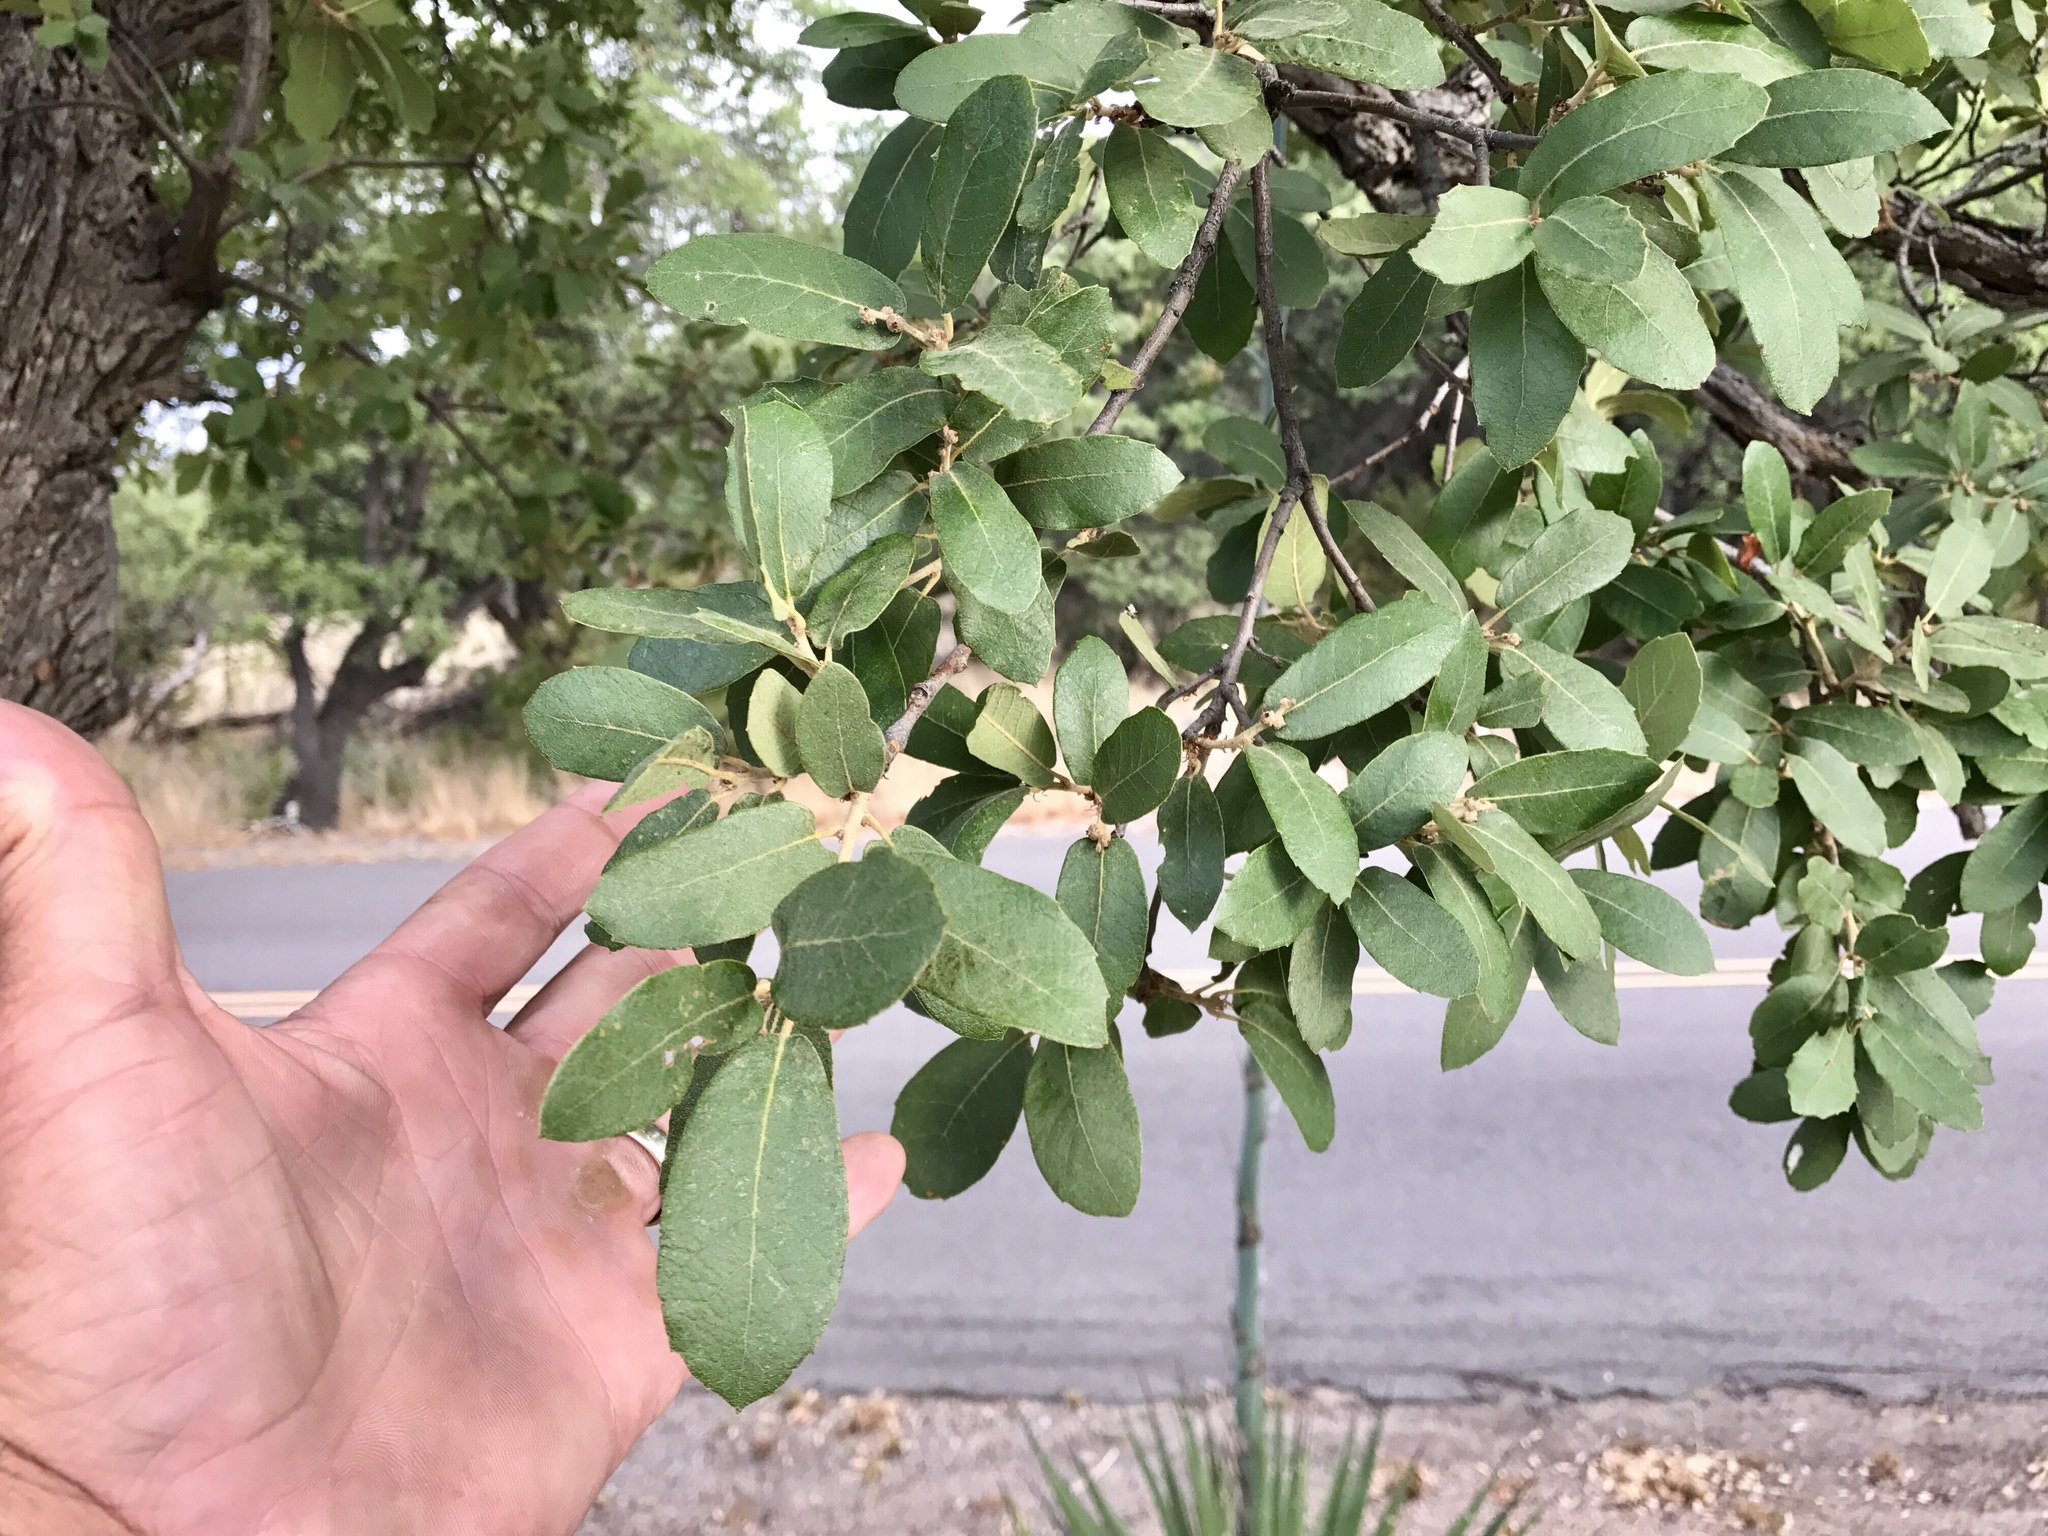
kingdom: Plantae
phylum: Tracheophyta
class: Magnoliopsida
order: Fagales
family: Fagaceae
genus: Quercus
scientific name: Quercus oblongifolia
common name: Mexican blue oak
